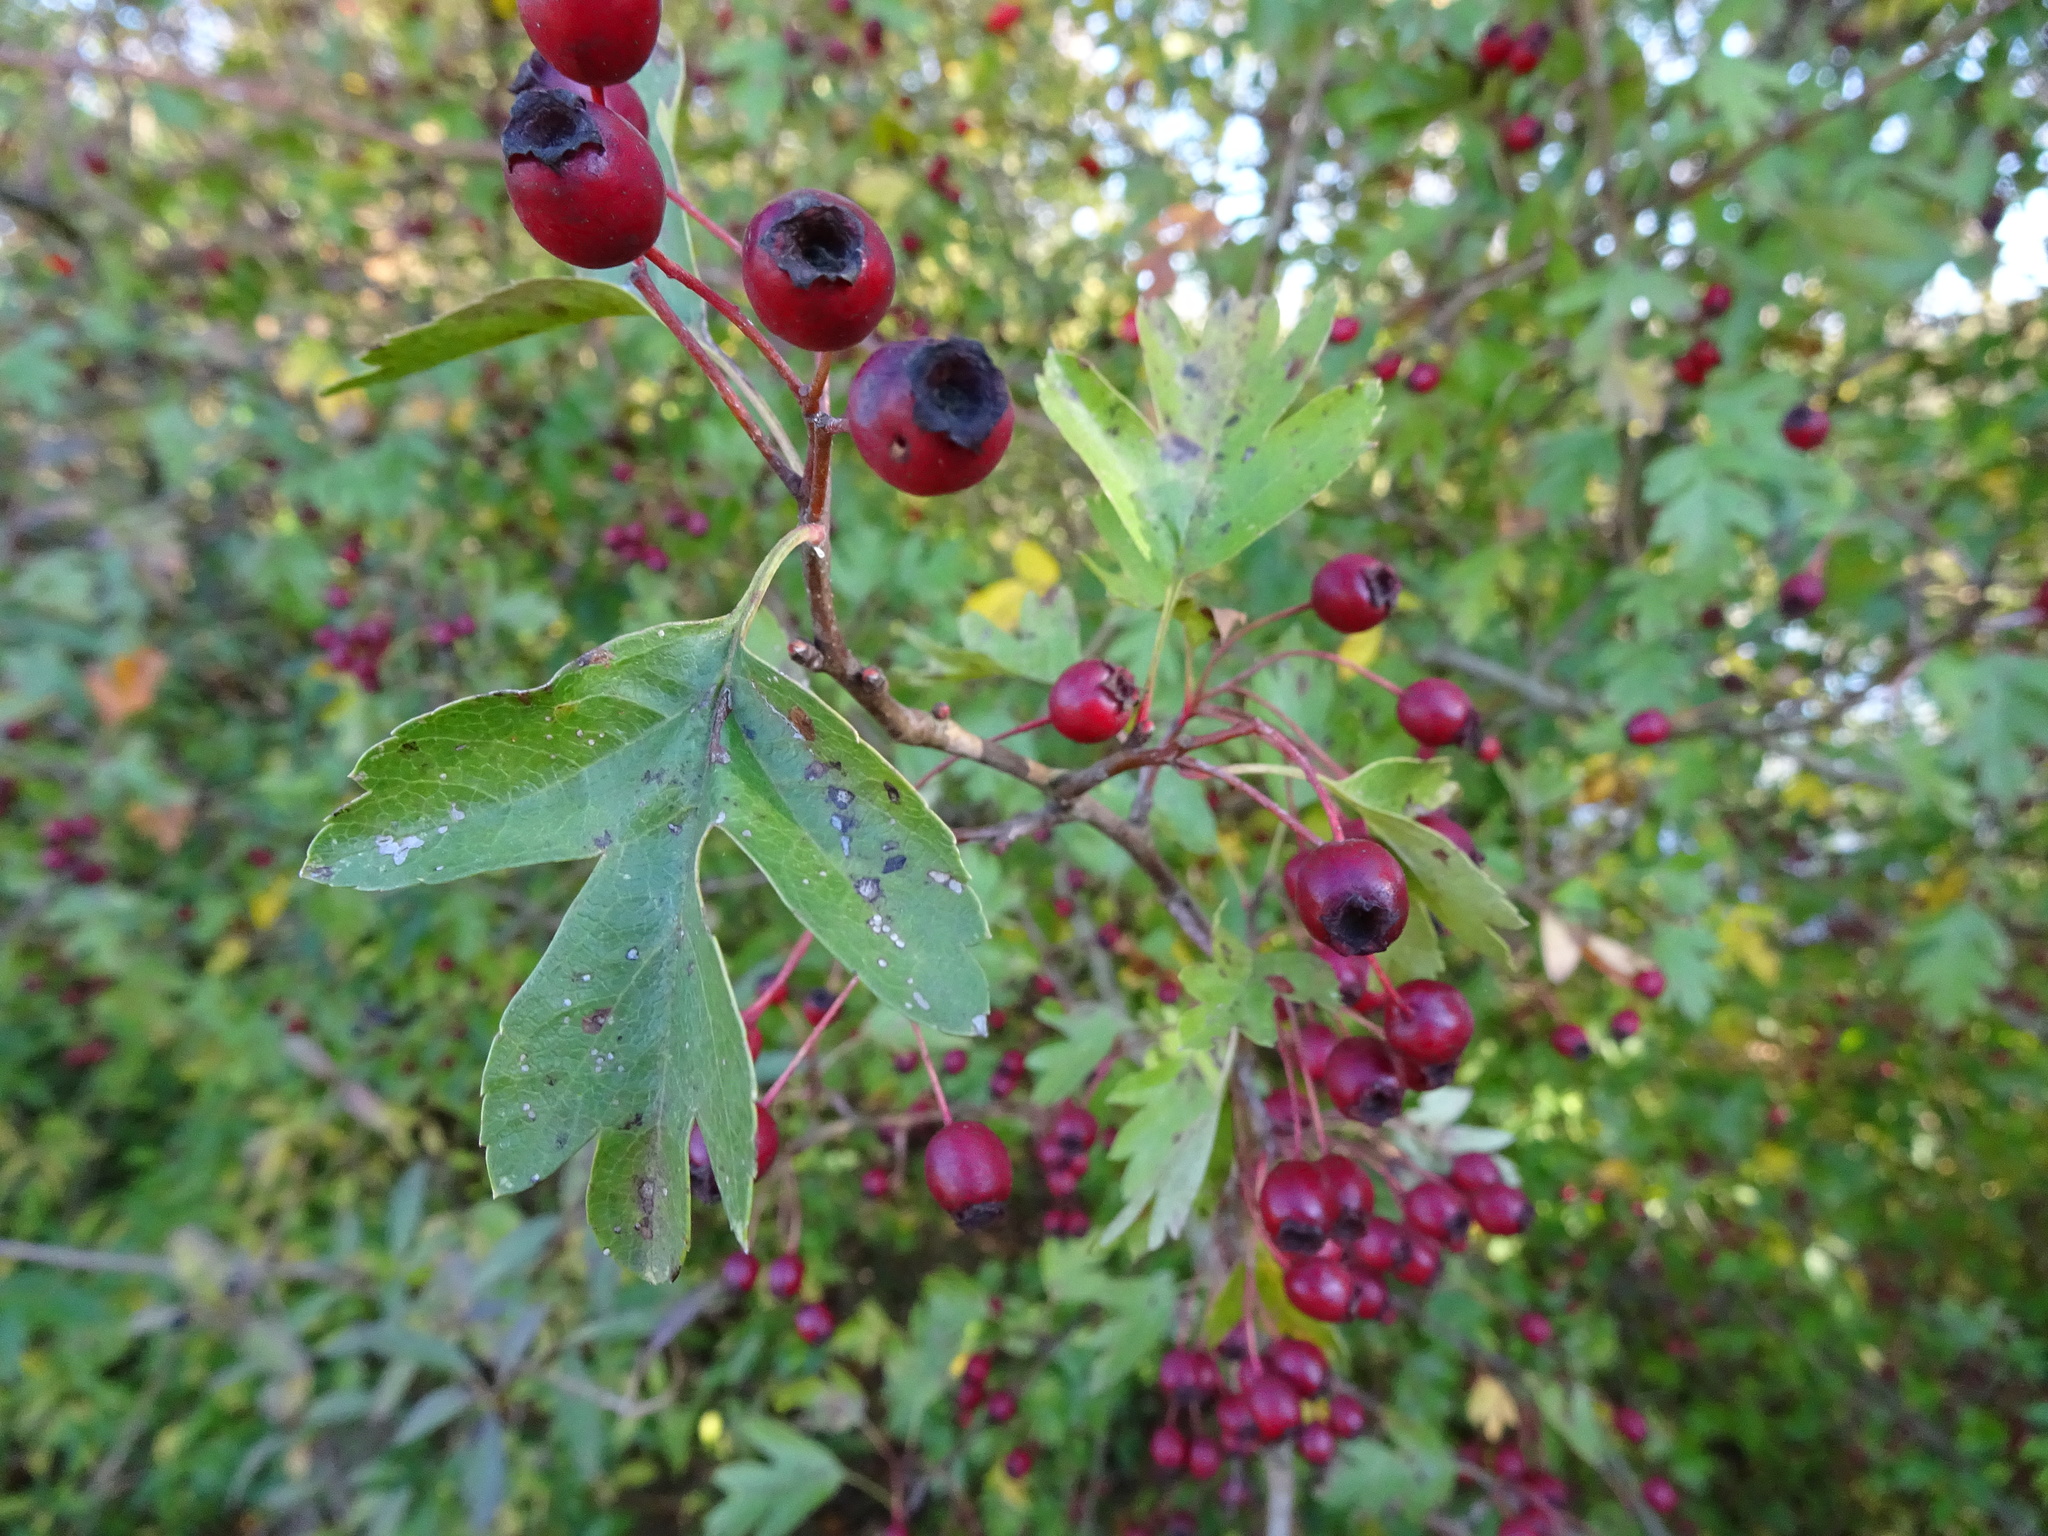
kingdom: Plantae
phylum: Tracheophyta
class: Magnoliopsida
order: Rosales
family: Rosaceae
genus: Crataegus
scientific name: Crataegus monogyna
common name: Hawthorn
